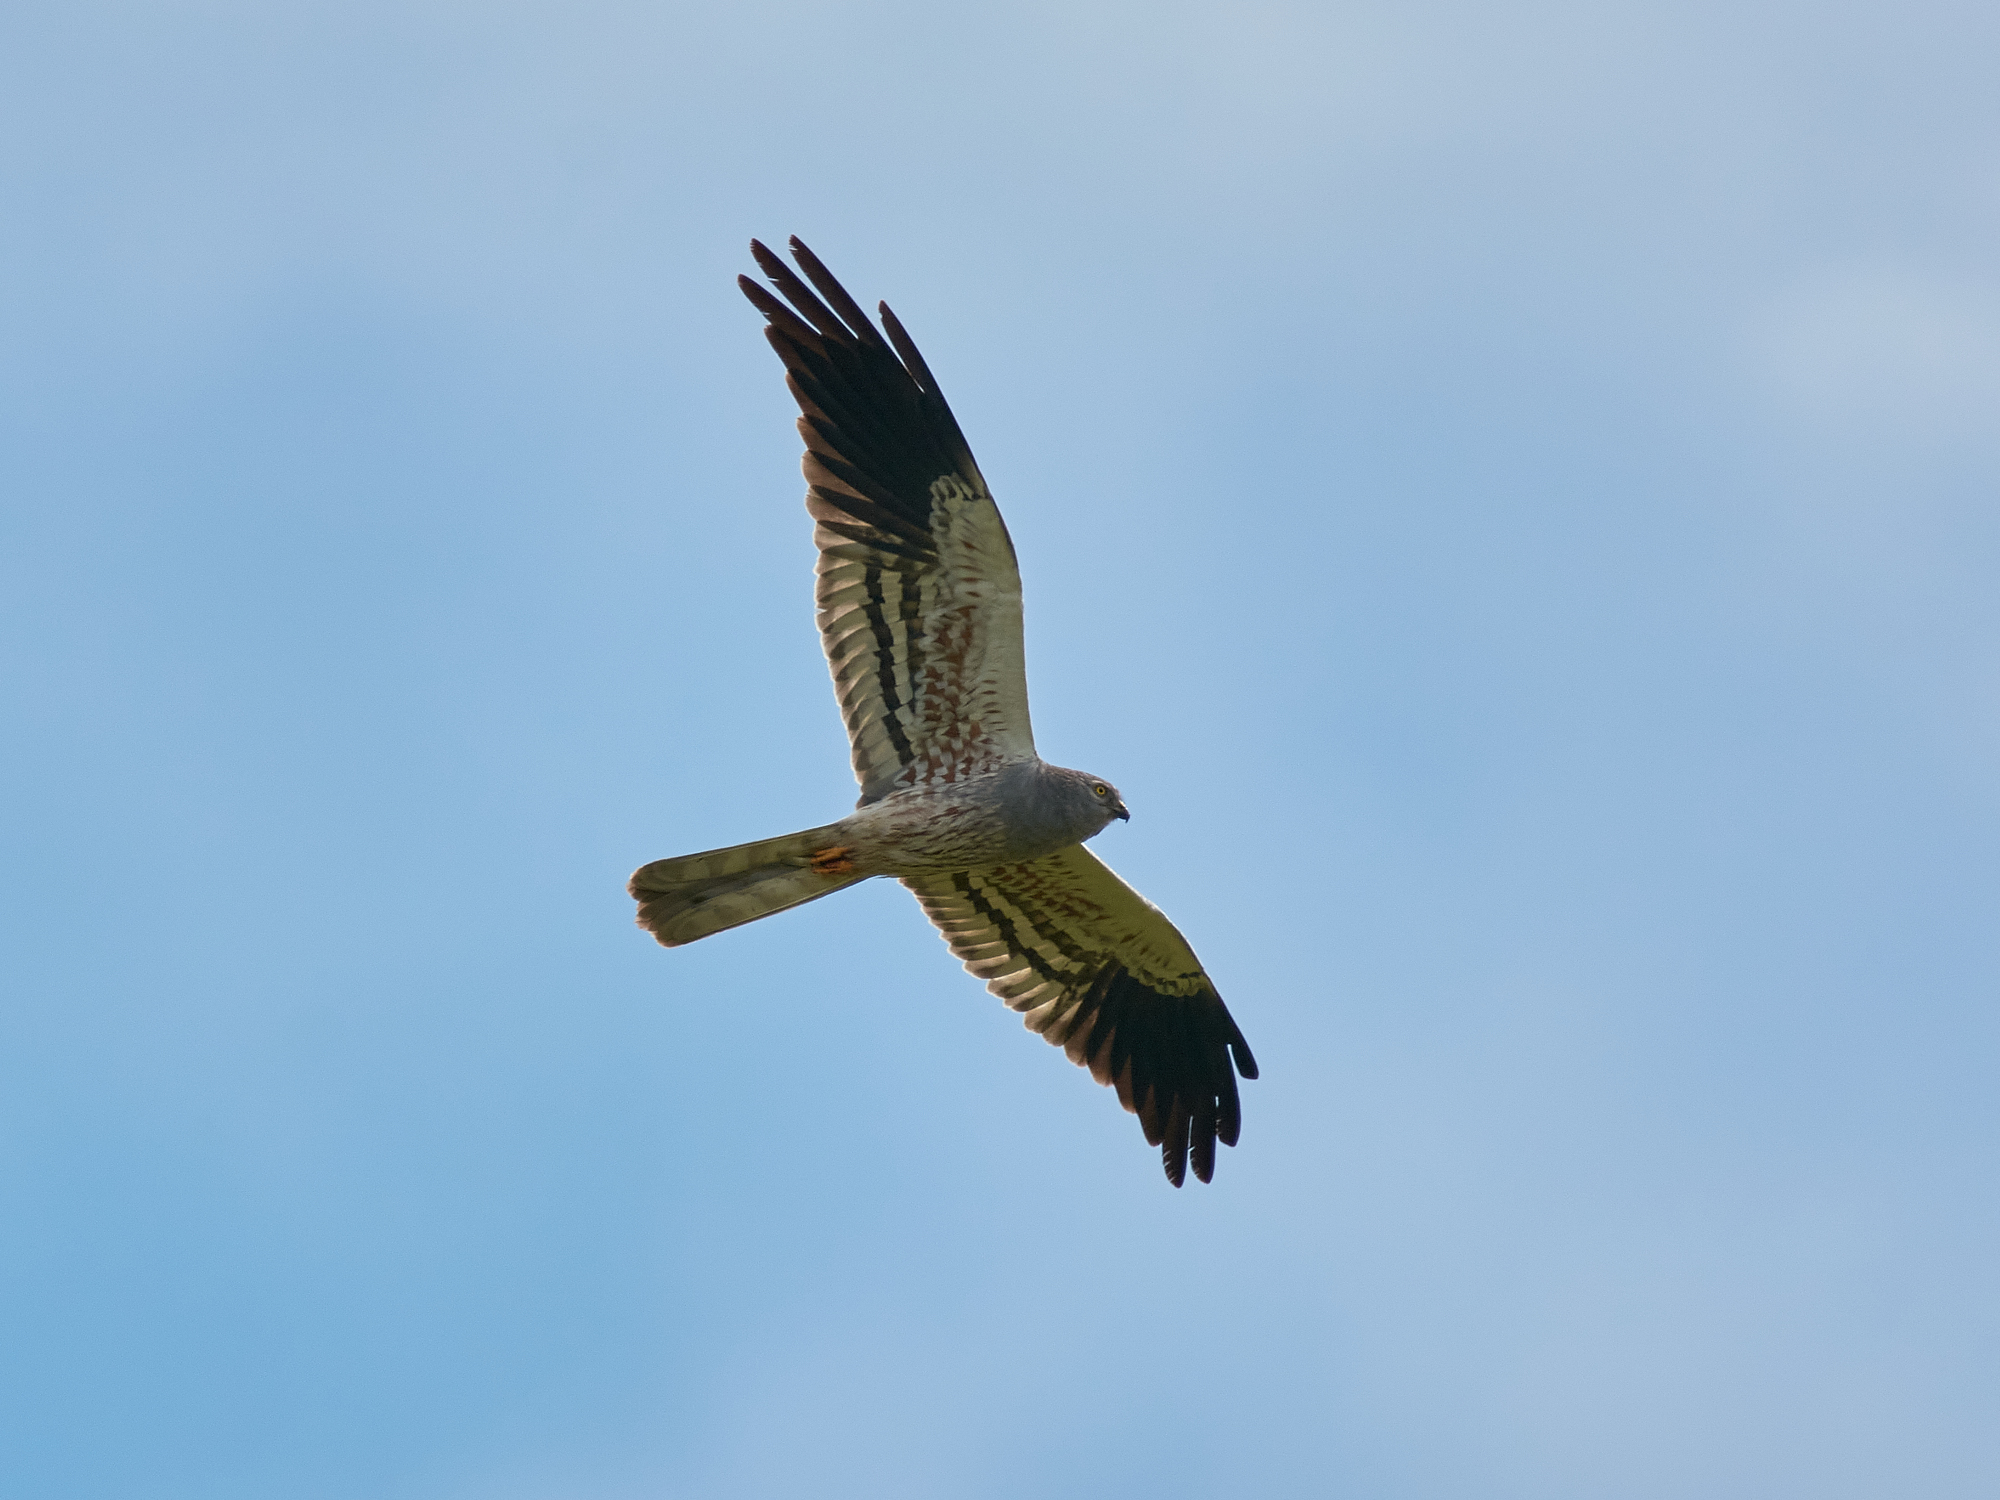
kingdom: Animalia
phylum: Chordata
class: Aves
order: Accipitriformes
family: Accipitridae
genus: Circus
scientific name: Circus pygargus
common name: Montagu's harrier
